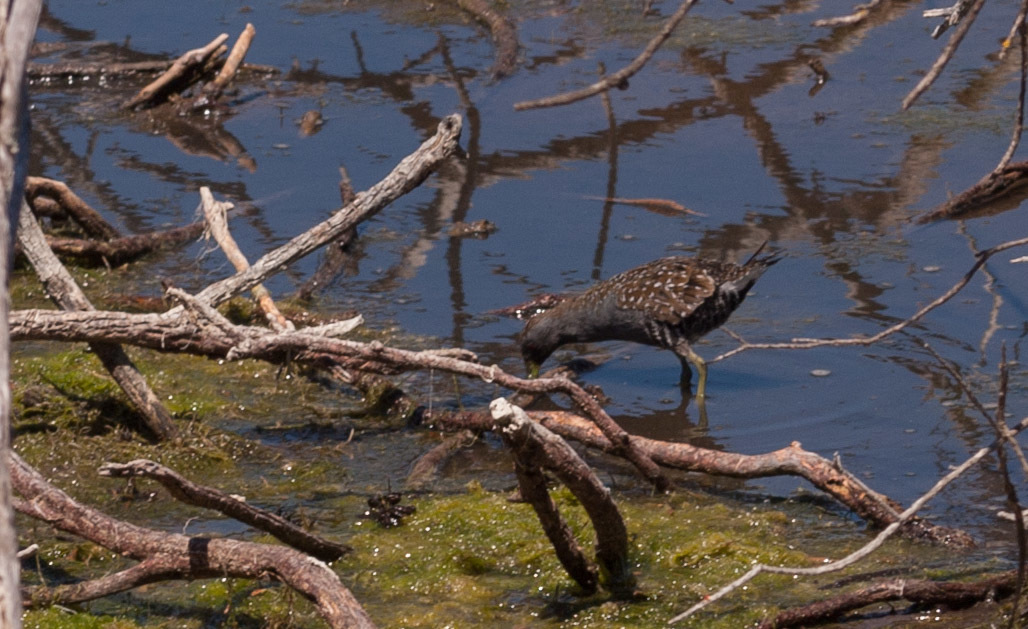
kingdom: Animalia
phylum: Chordata
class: Aves
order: Gruiformes
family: Rallidae
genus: Porzana
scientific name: Porzana fluminea
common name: Australian crake
